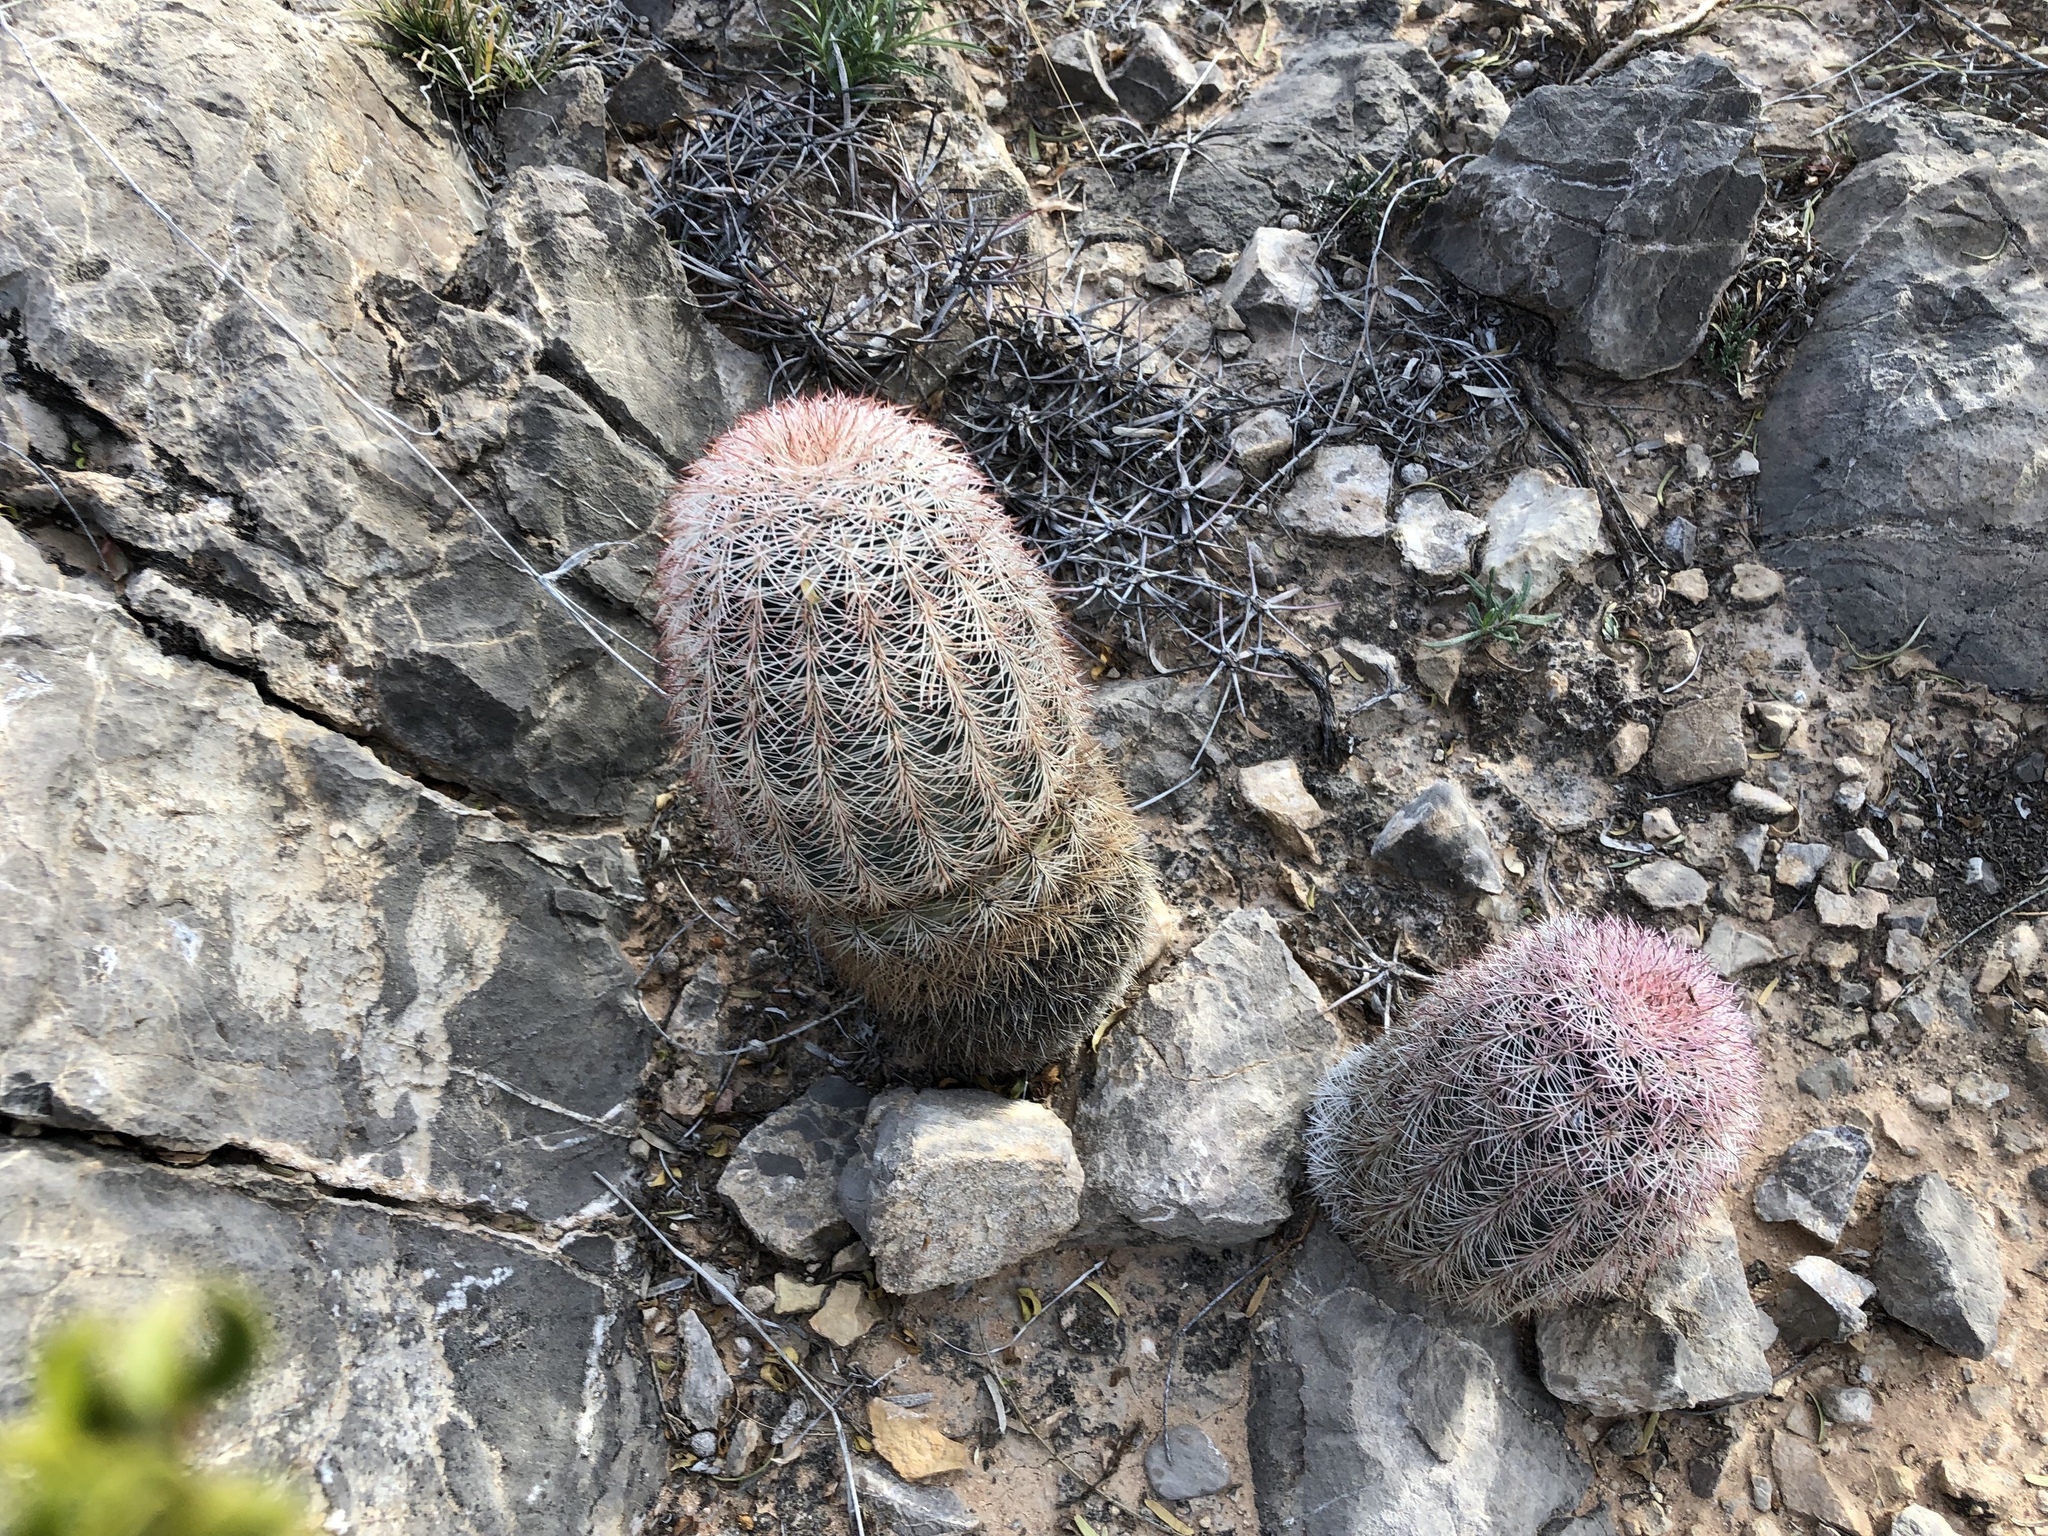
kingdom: Plantae
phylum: Tracheophyta
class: Magnoliopsida
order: Caryophyllales
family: Cactaceae
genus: Echinocereus
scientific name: Echinocereus dasyacanthus
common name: Spiny hedgehog cactus
